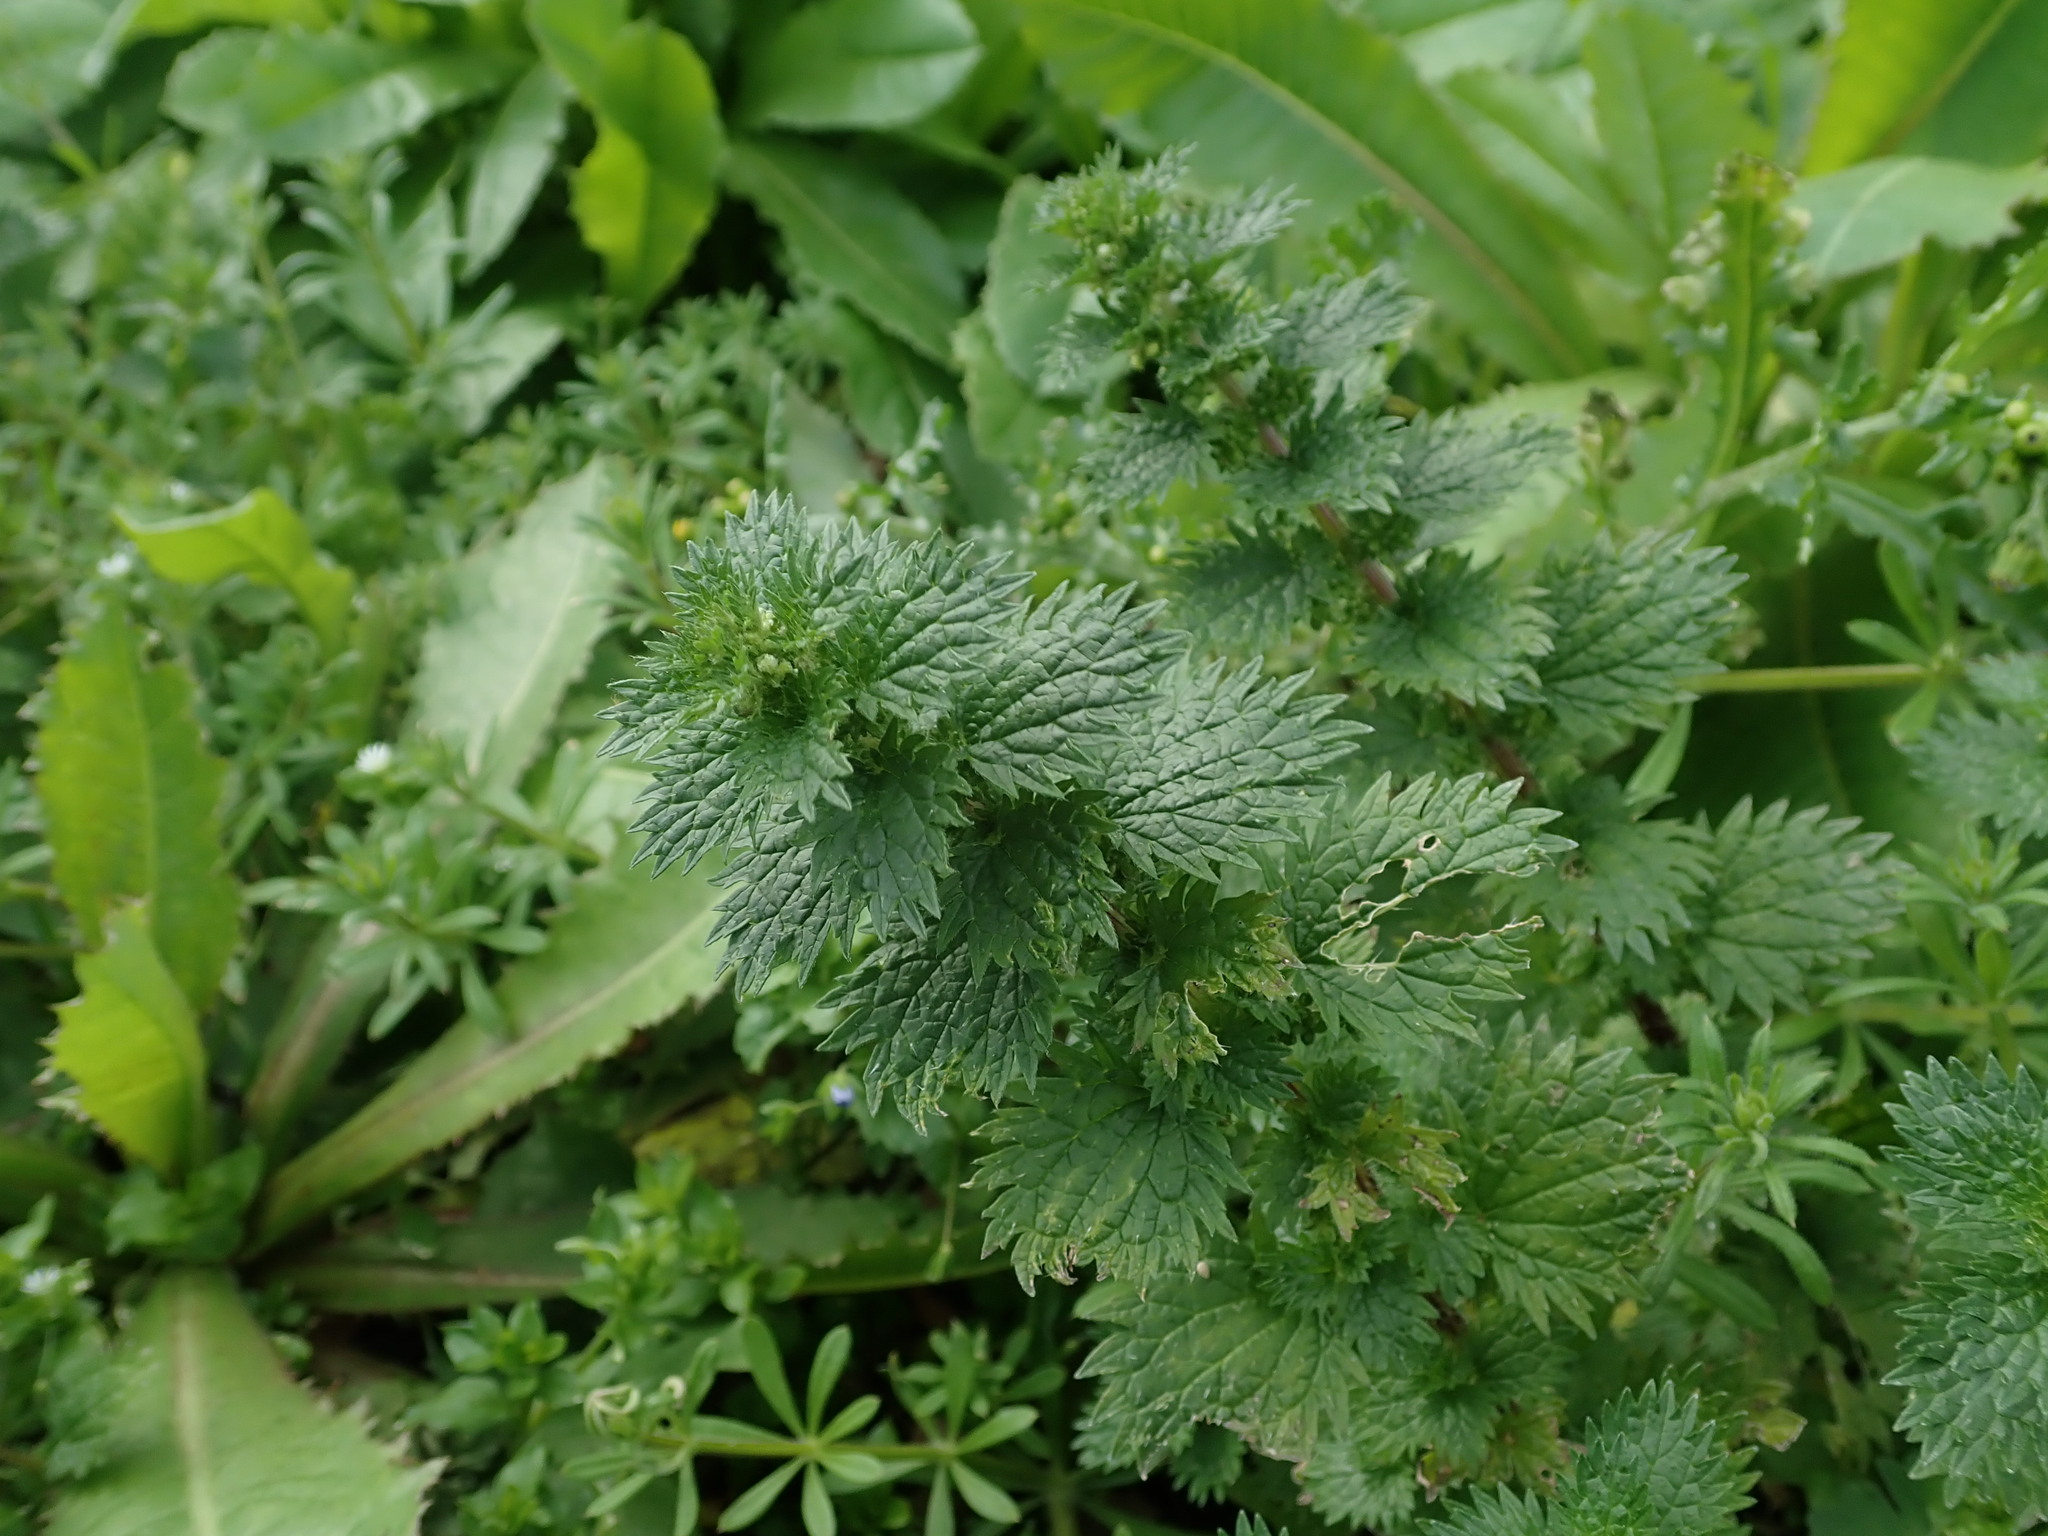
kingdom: Plantae
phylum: Tracheophyta
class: Magnoliopsida
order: Rosales
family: Urticaceae
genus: Urtica
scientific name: Urtica urens
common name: Dwarf nettle
